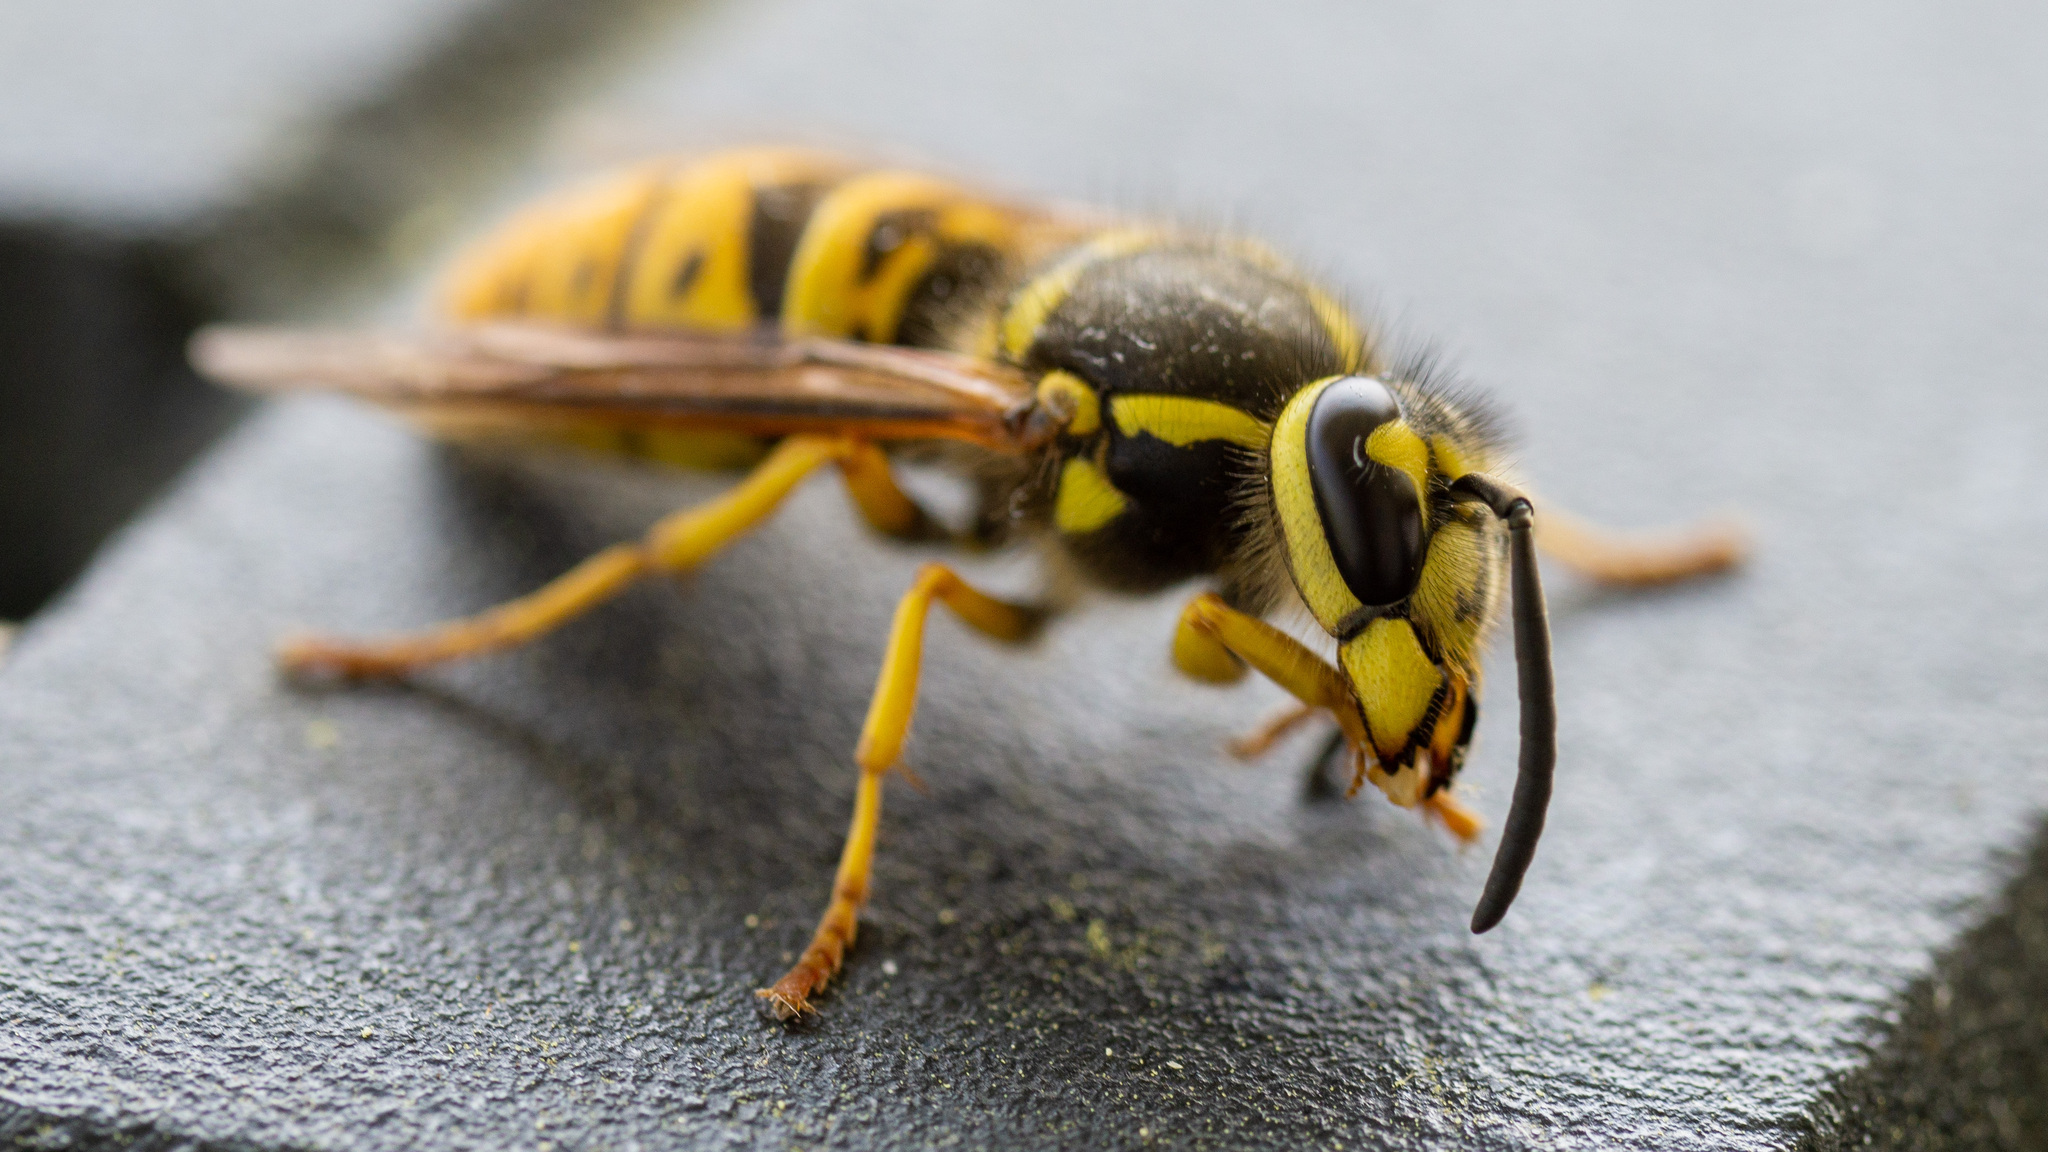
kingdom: Animalia
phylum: Arthropoda
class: Insecta
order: Hymenoptera
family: Vespidae
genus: Vespula
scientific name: Vespula maculifrons
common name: Eastern yellowjacket
